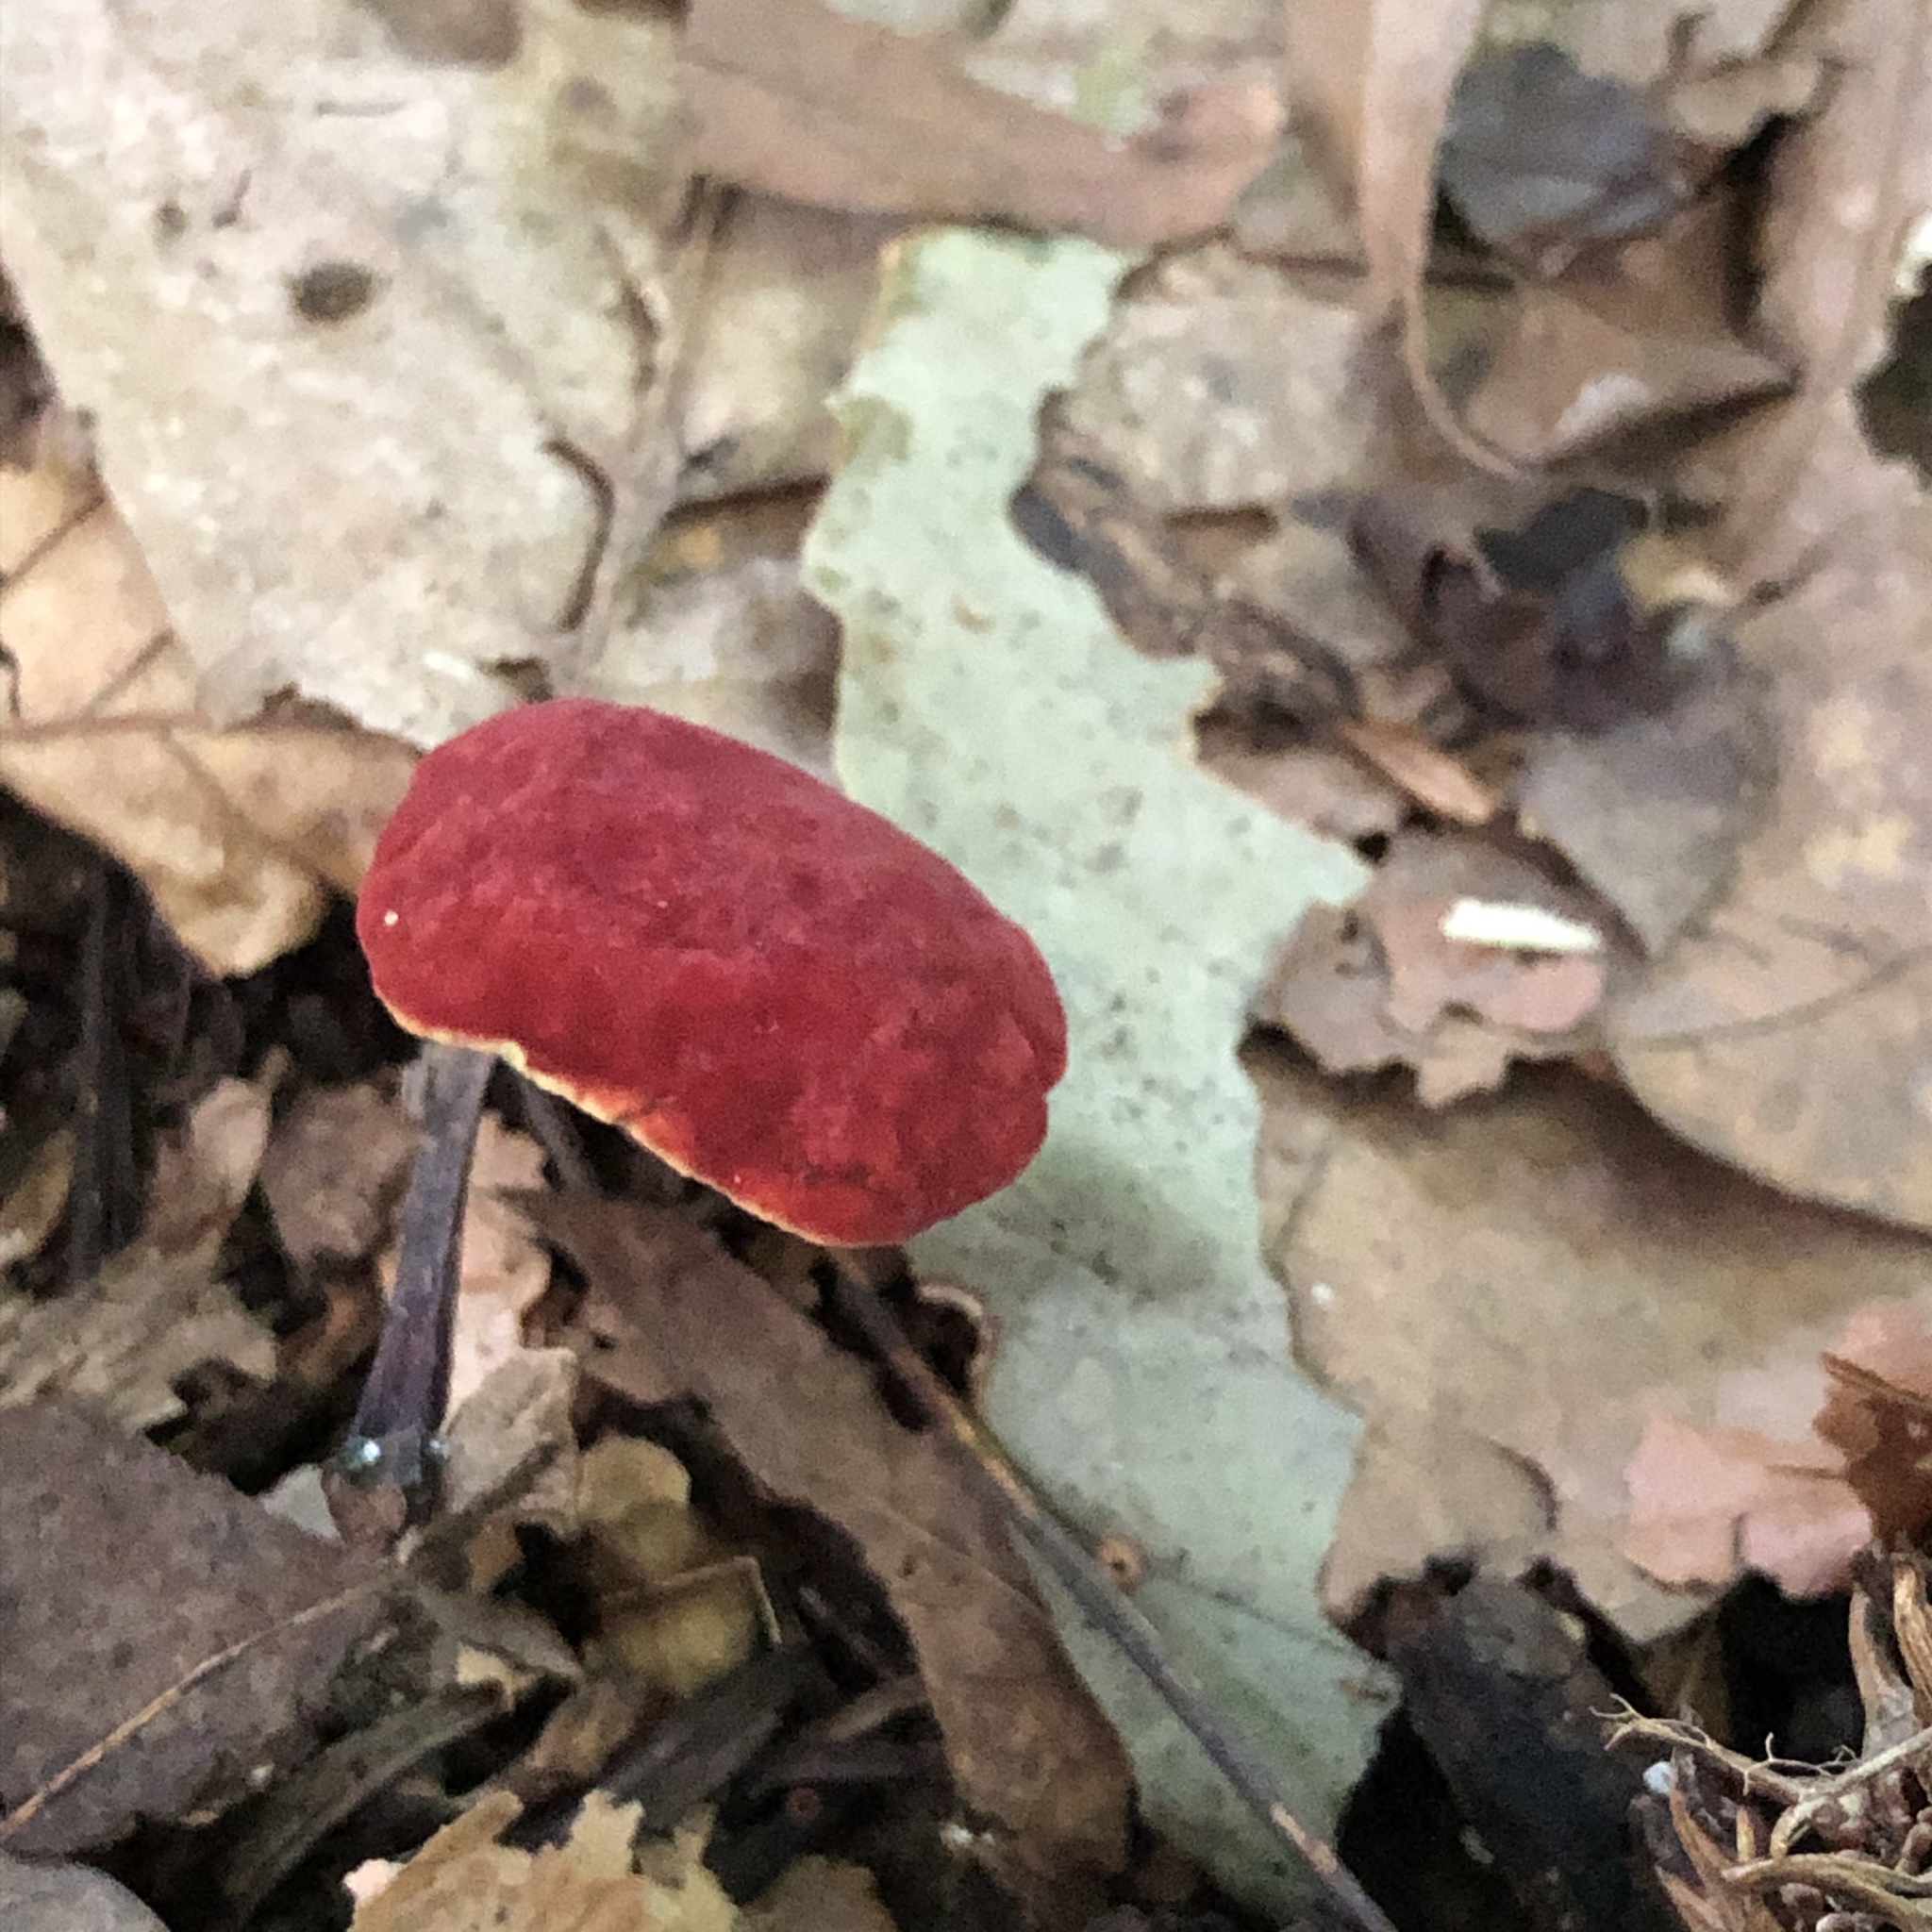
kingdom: Fungi
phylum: Basidiomycota
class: Agaricomycetes
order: Boletales
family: Boletaceae
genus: Hortiboletus
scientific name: Hortiboletus rubellus
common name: Ruby bolete
